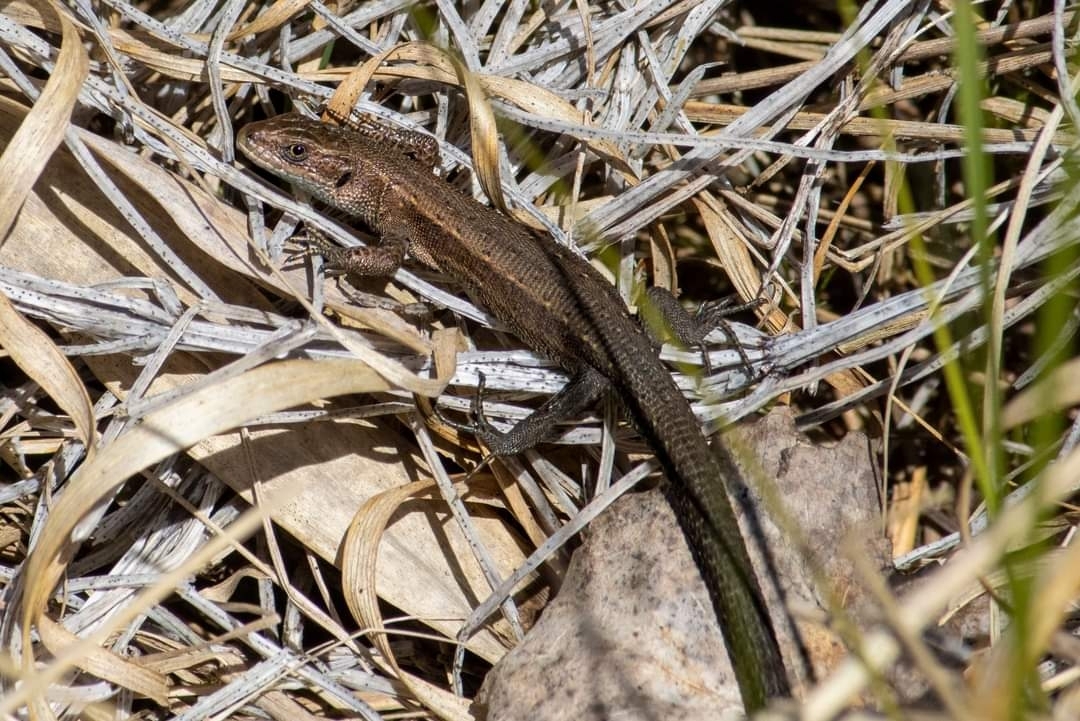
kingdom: Animalia
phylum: Chordata
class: Squamata
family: Lacertidae
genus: Zootoca
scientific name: Zootoca vivipara
